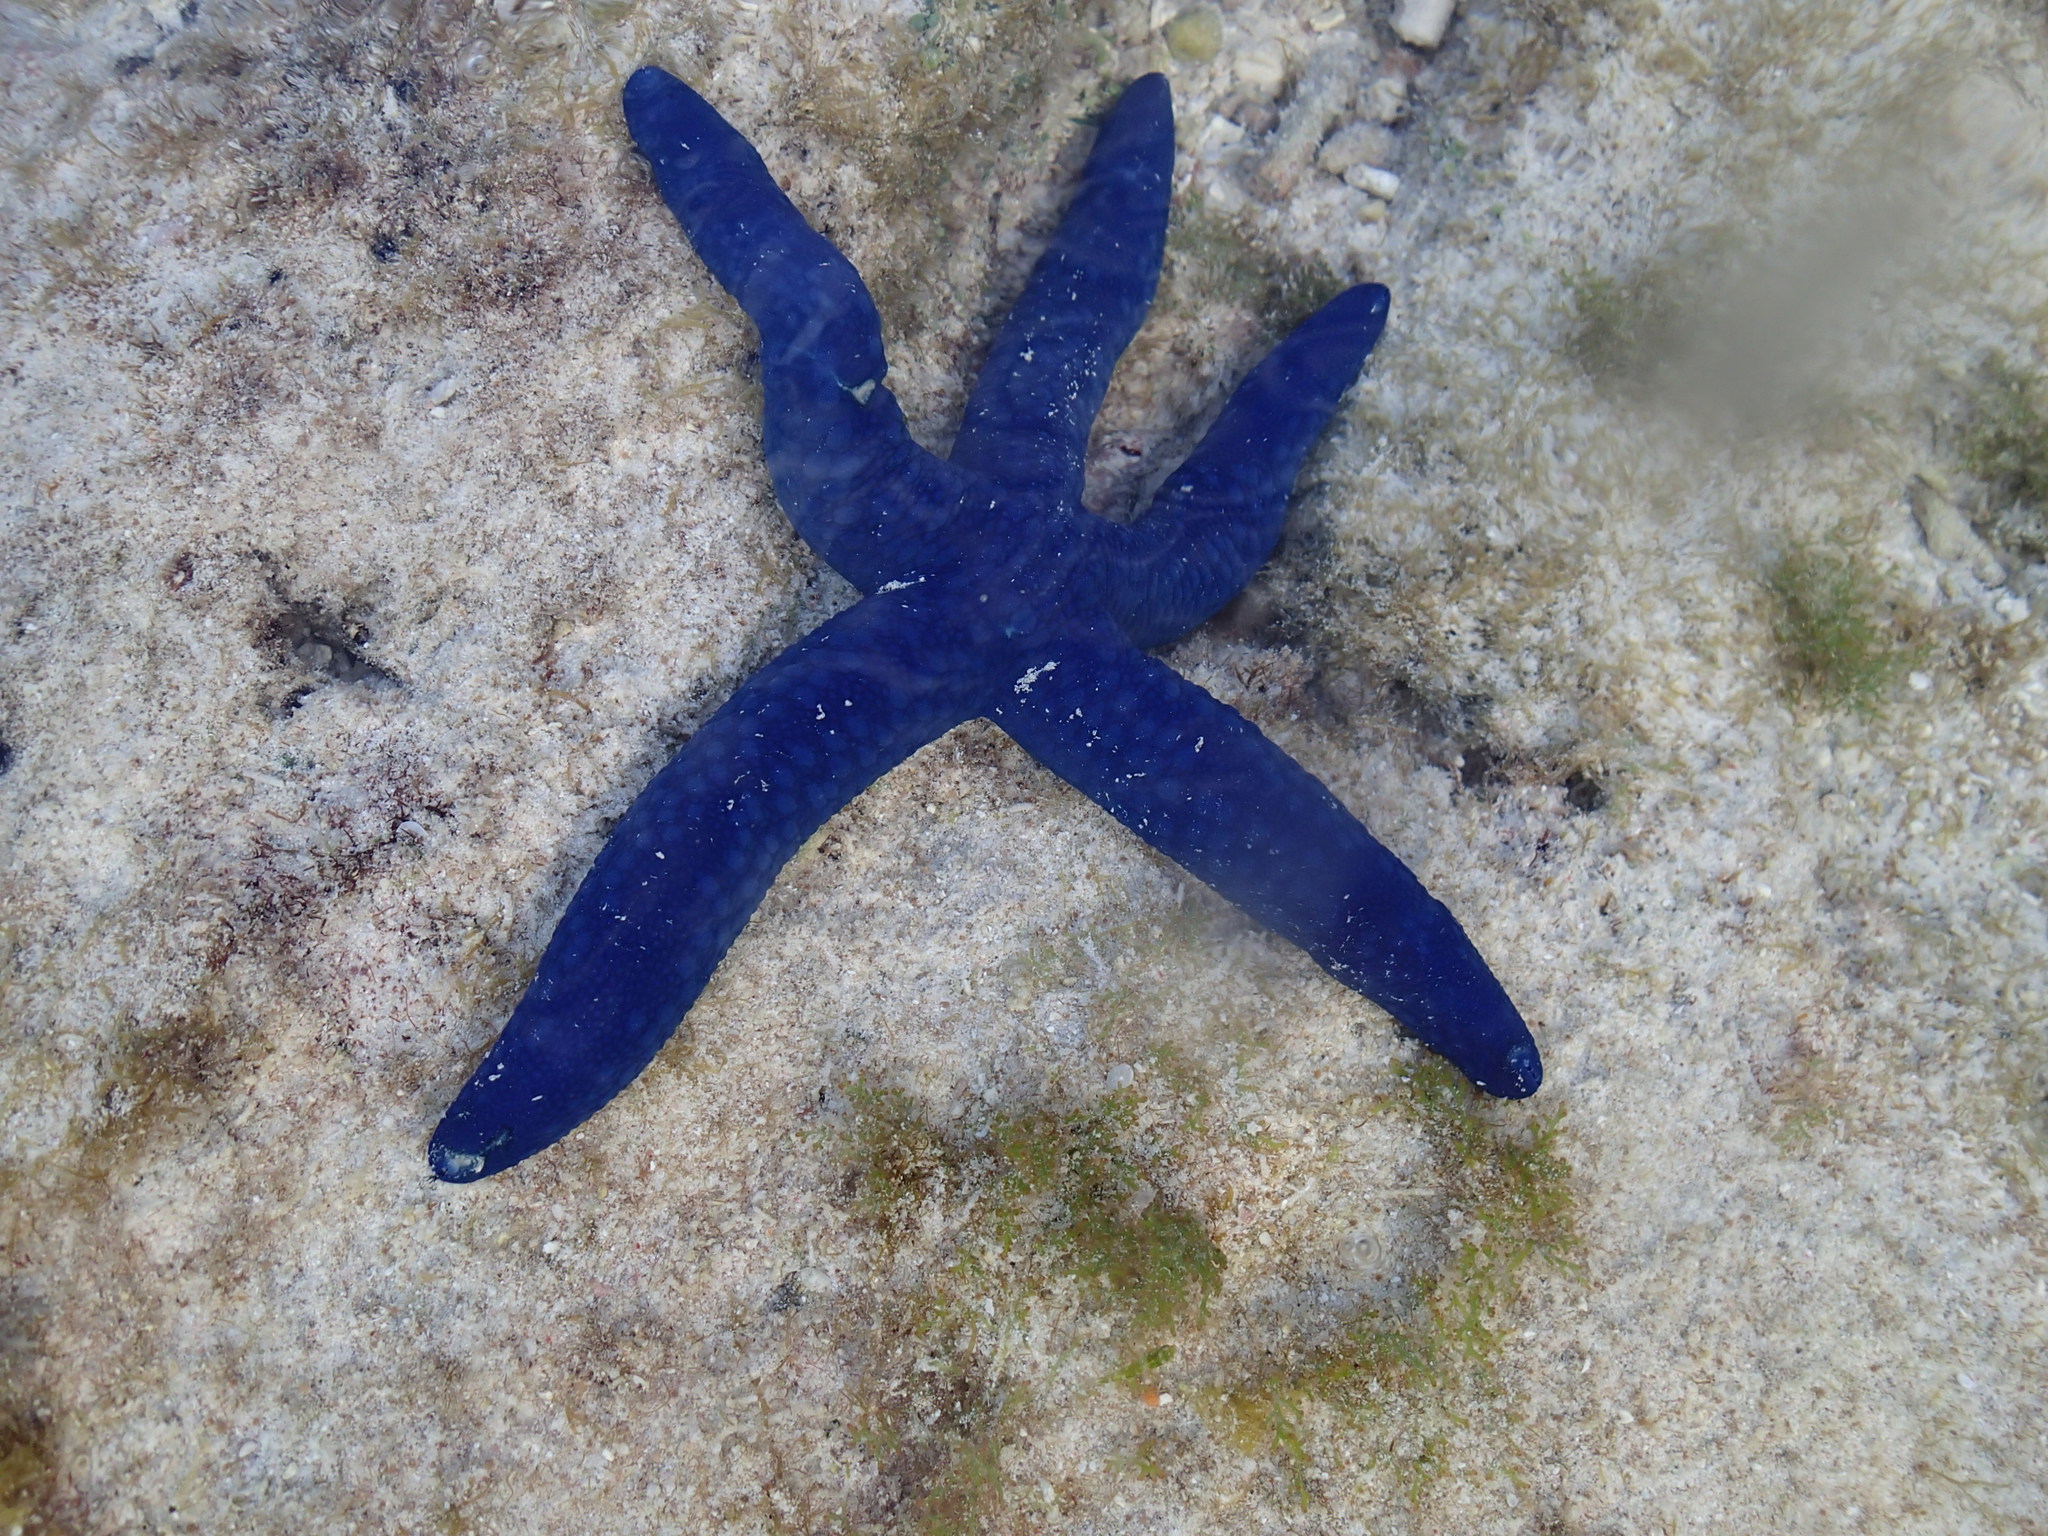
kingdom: Animalia
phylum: Echinodermata
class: Asteroidea
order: Valvatida
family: Ophidiasteridae
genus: Linckia
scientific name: Linckia laevigata
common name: Azure sea star
